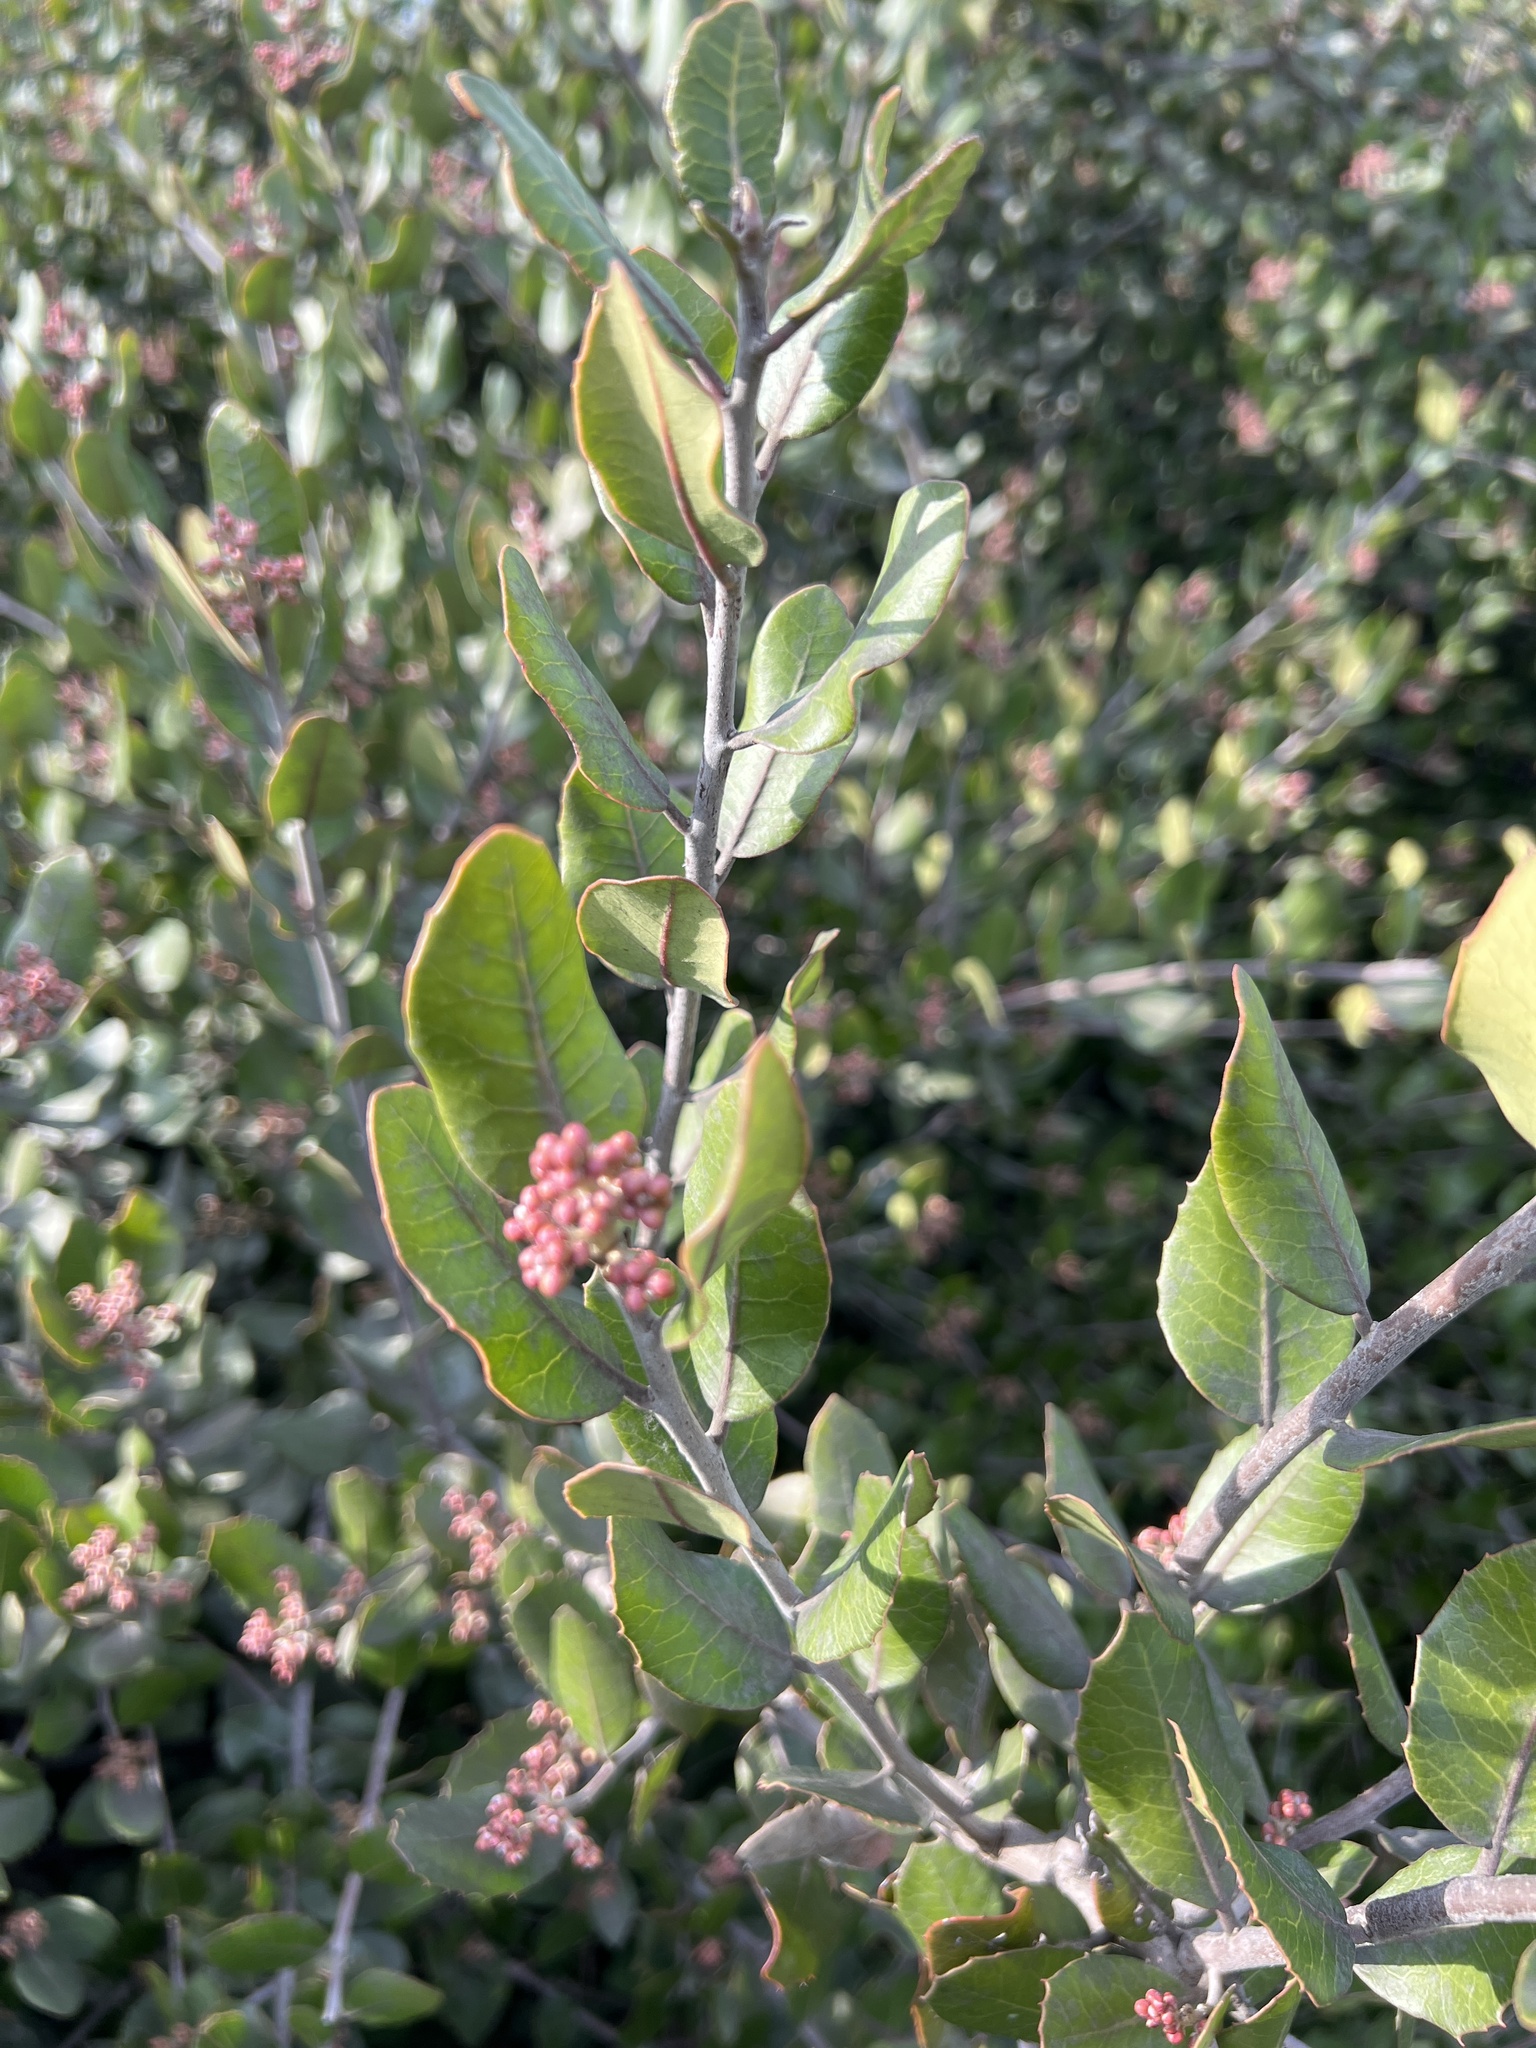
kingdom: Plantae
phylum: Tracheophyta
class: Magnoliopsida
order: Sapindales
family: Anacardiaceae
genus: Rhus
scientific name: Rhus integrifolia
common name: Lemonade sumac
